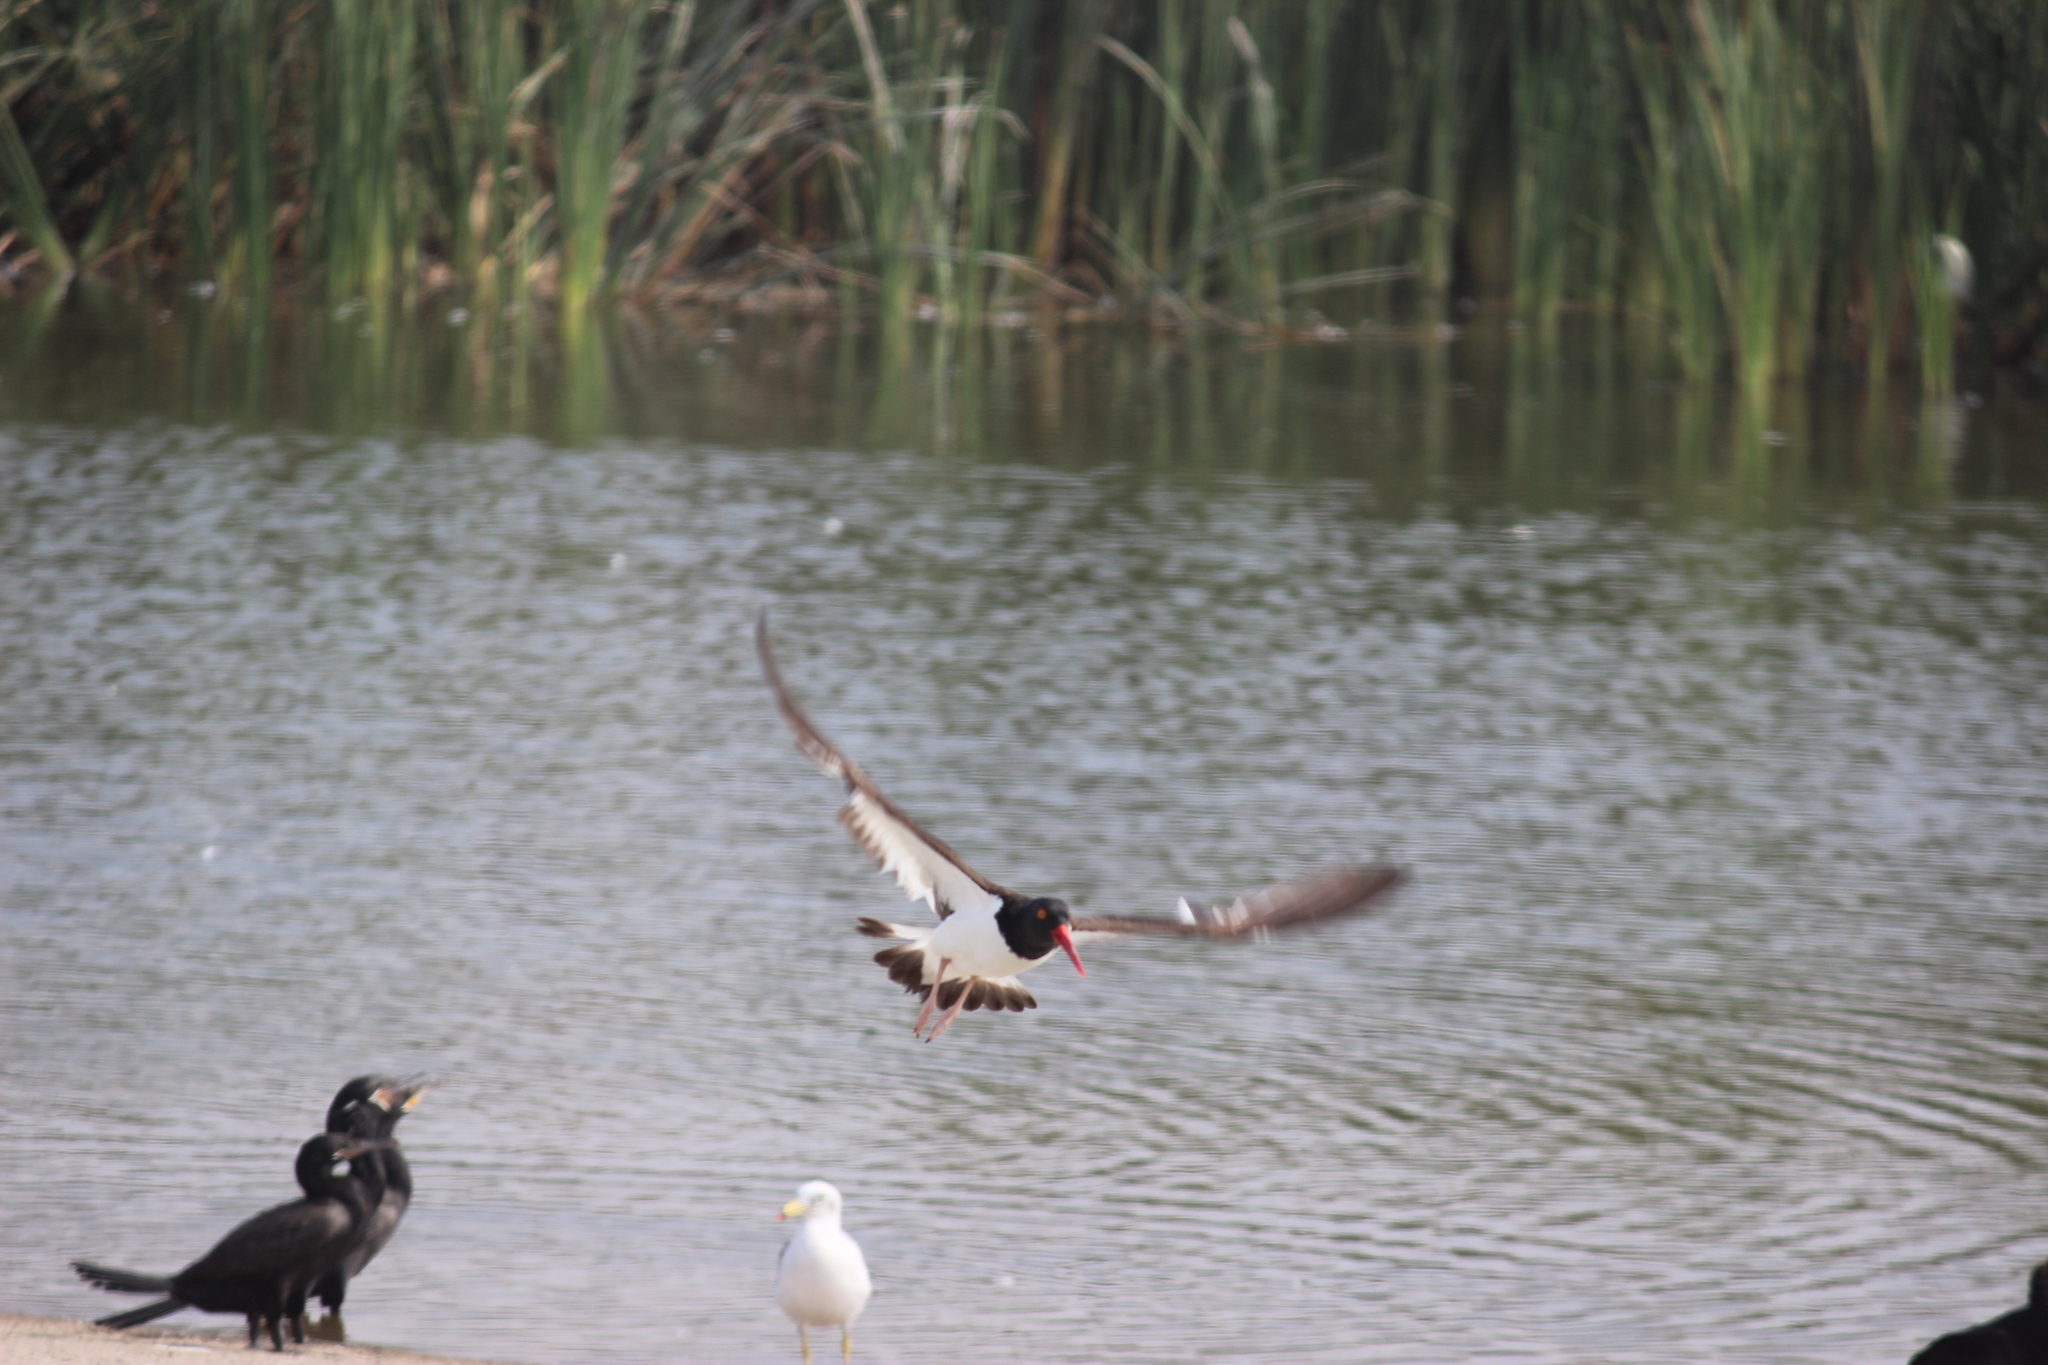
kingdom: Animalia
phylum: Chordata
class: Aves
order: Charadriiformes
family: Haematopodidae
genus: Haematopus
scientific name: Haematopus palliatus
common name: American oystercatcher
